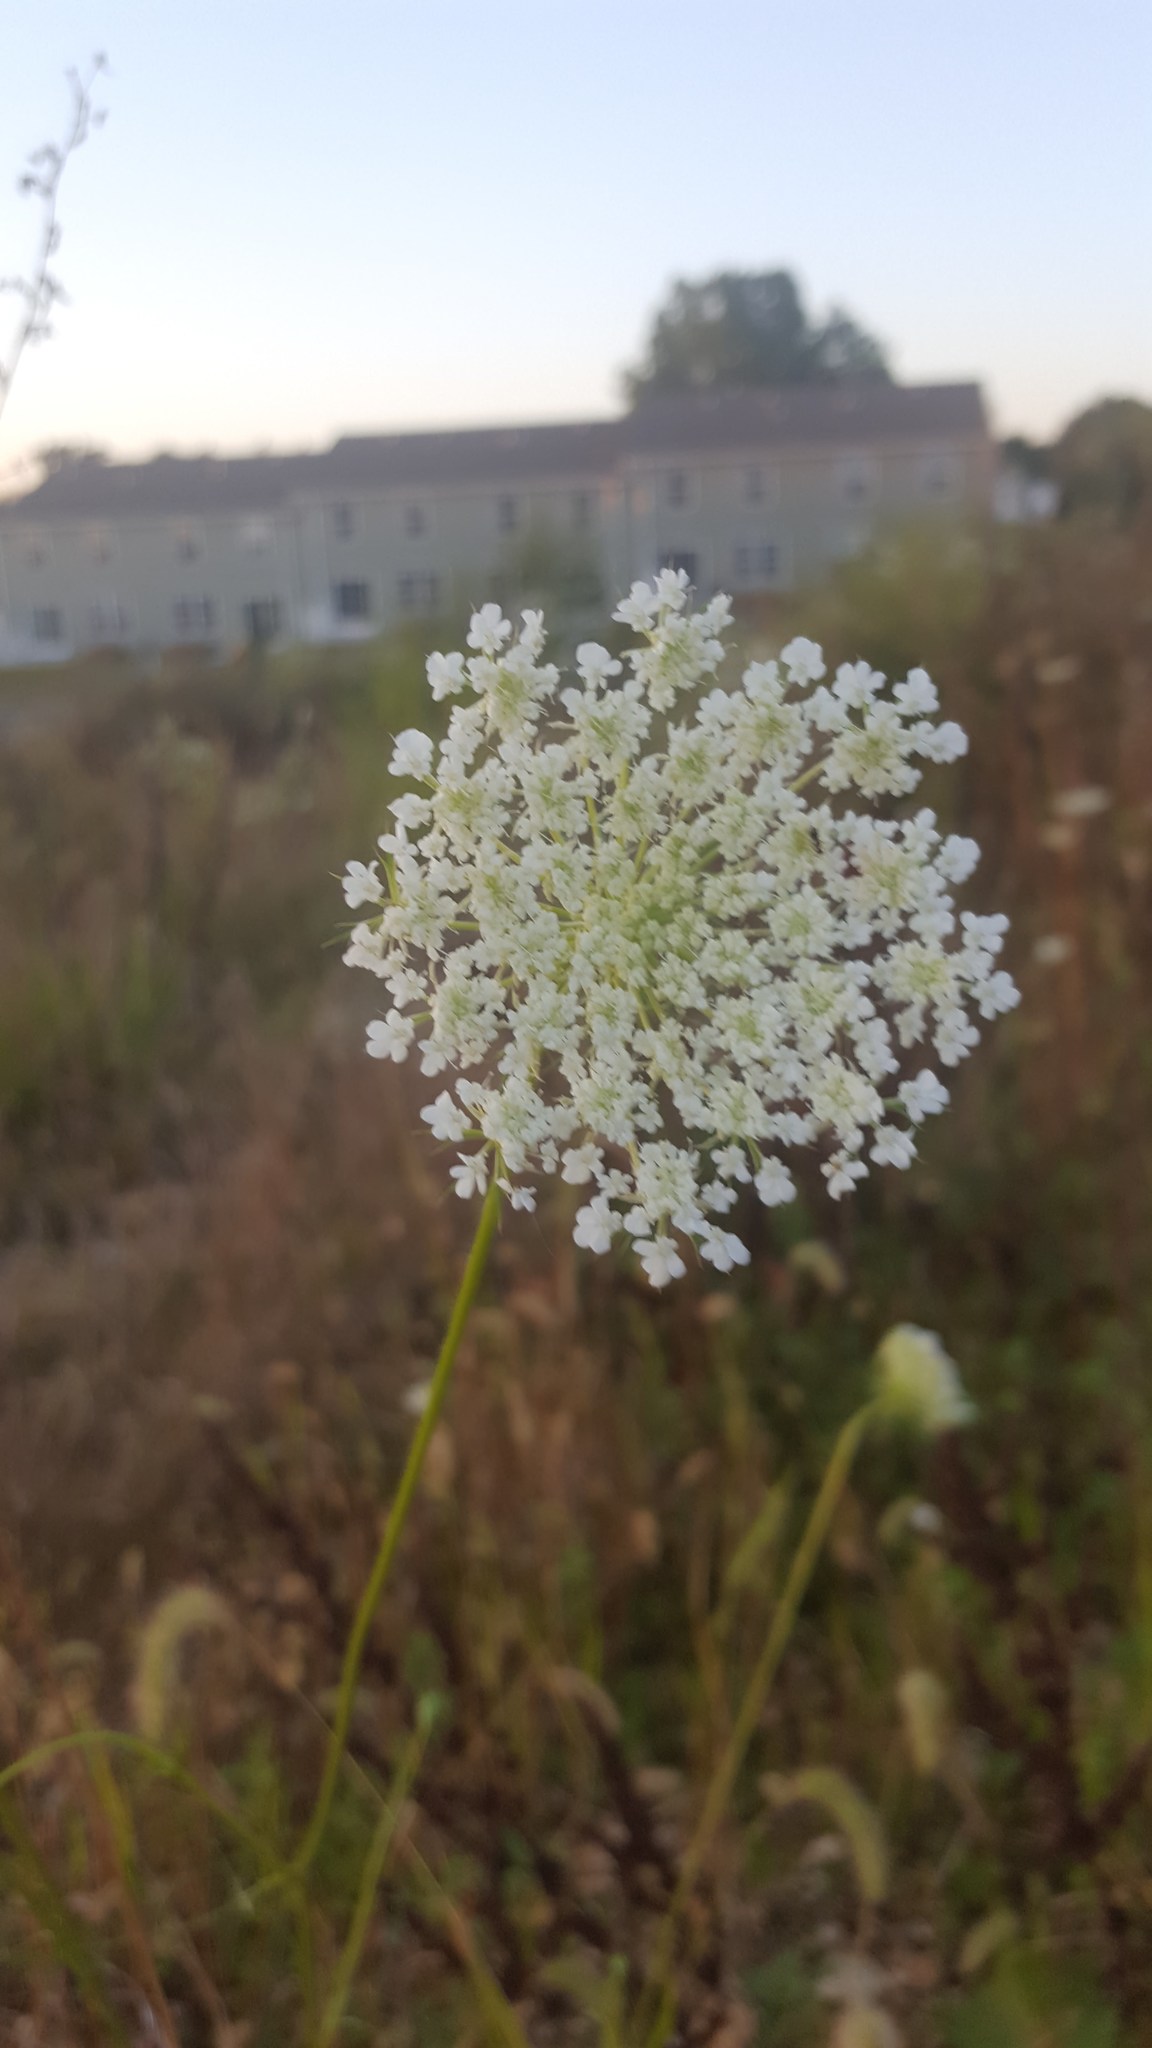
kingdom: Plantae
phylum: Tracheophyta
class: Magnoliopsida
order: Apiales
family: Apiaceae
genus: Daucus
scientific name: Daucus carota
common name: Wild carrot
